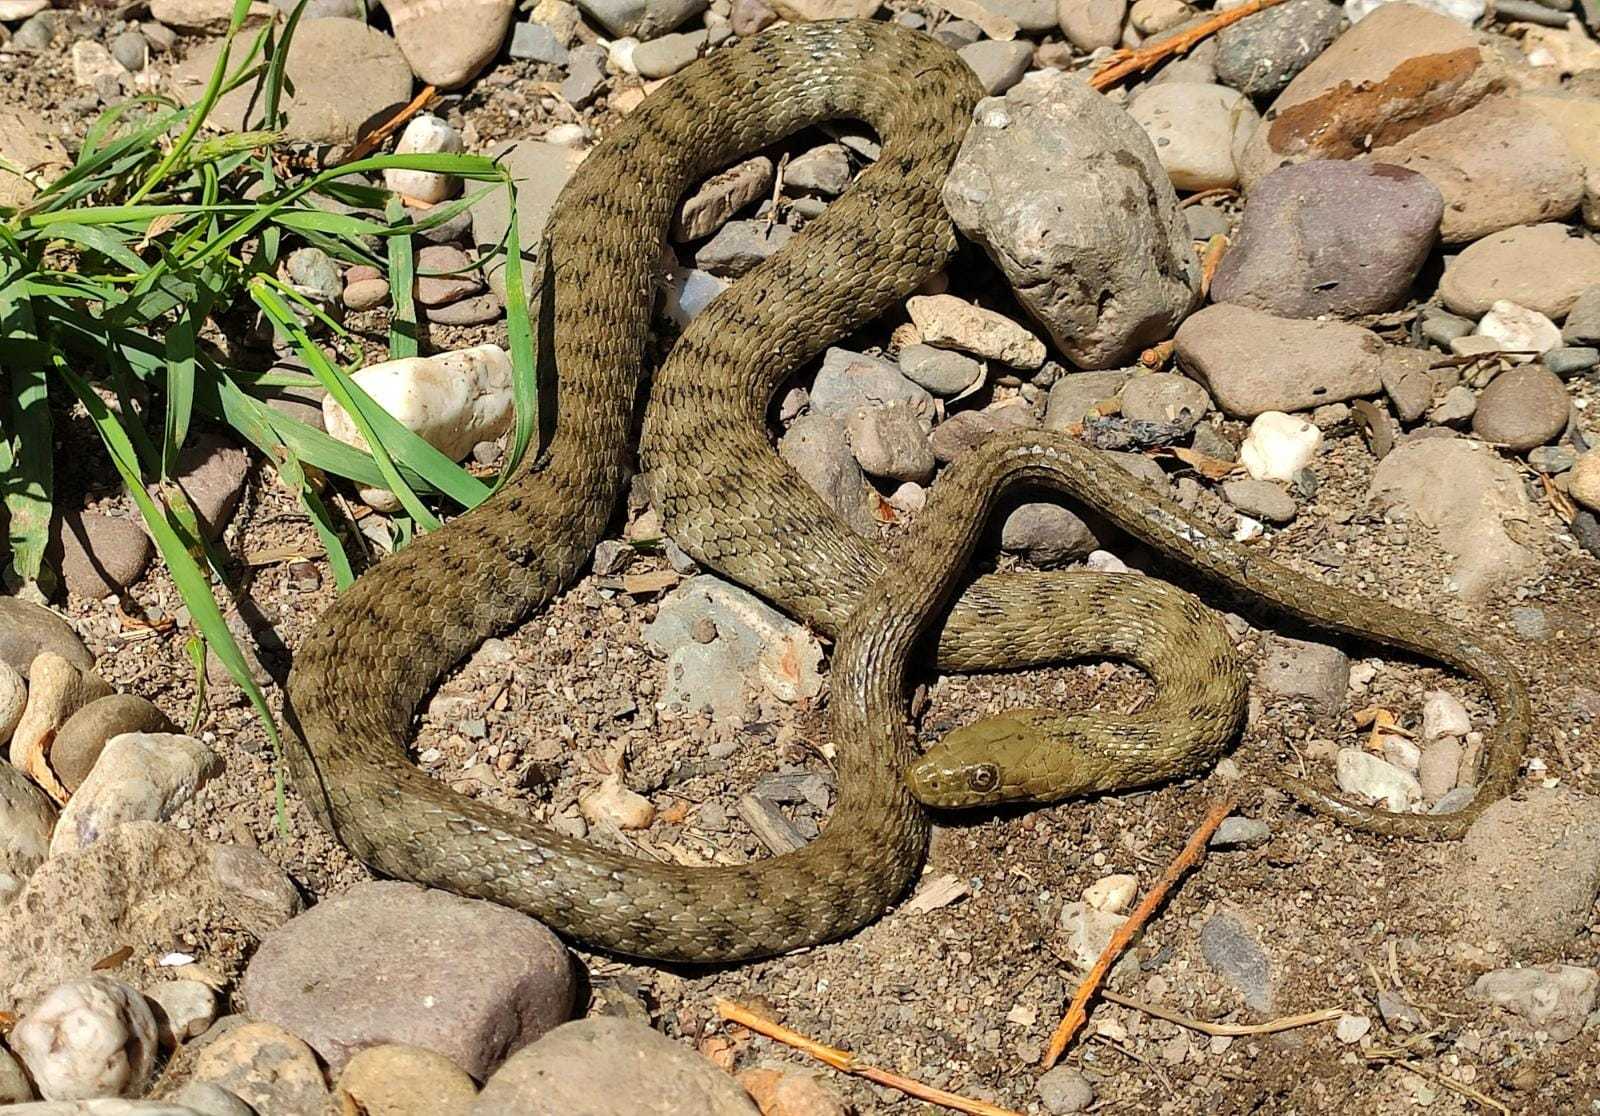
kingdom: Animalia
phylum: Chordata
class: Squamata
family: Colubridae
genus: Natrix
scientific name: Natrix tessellata
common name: Dice snake
